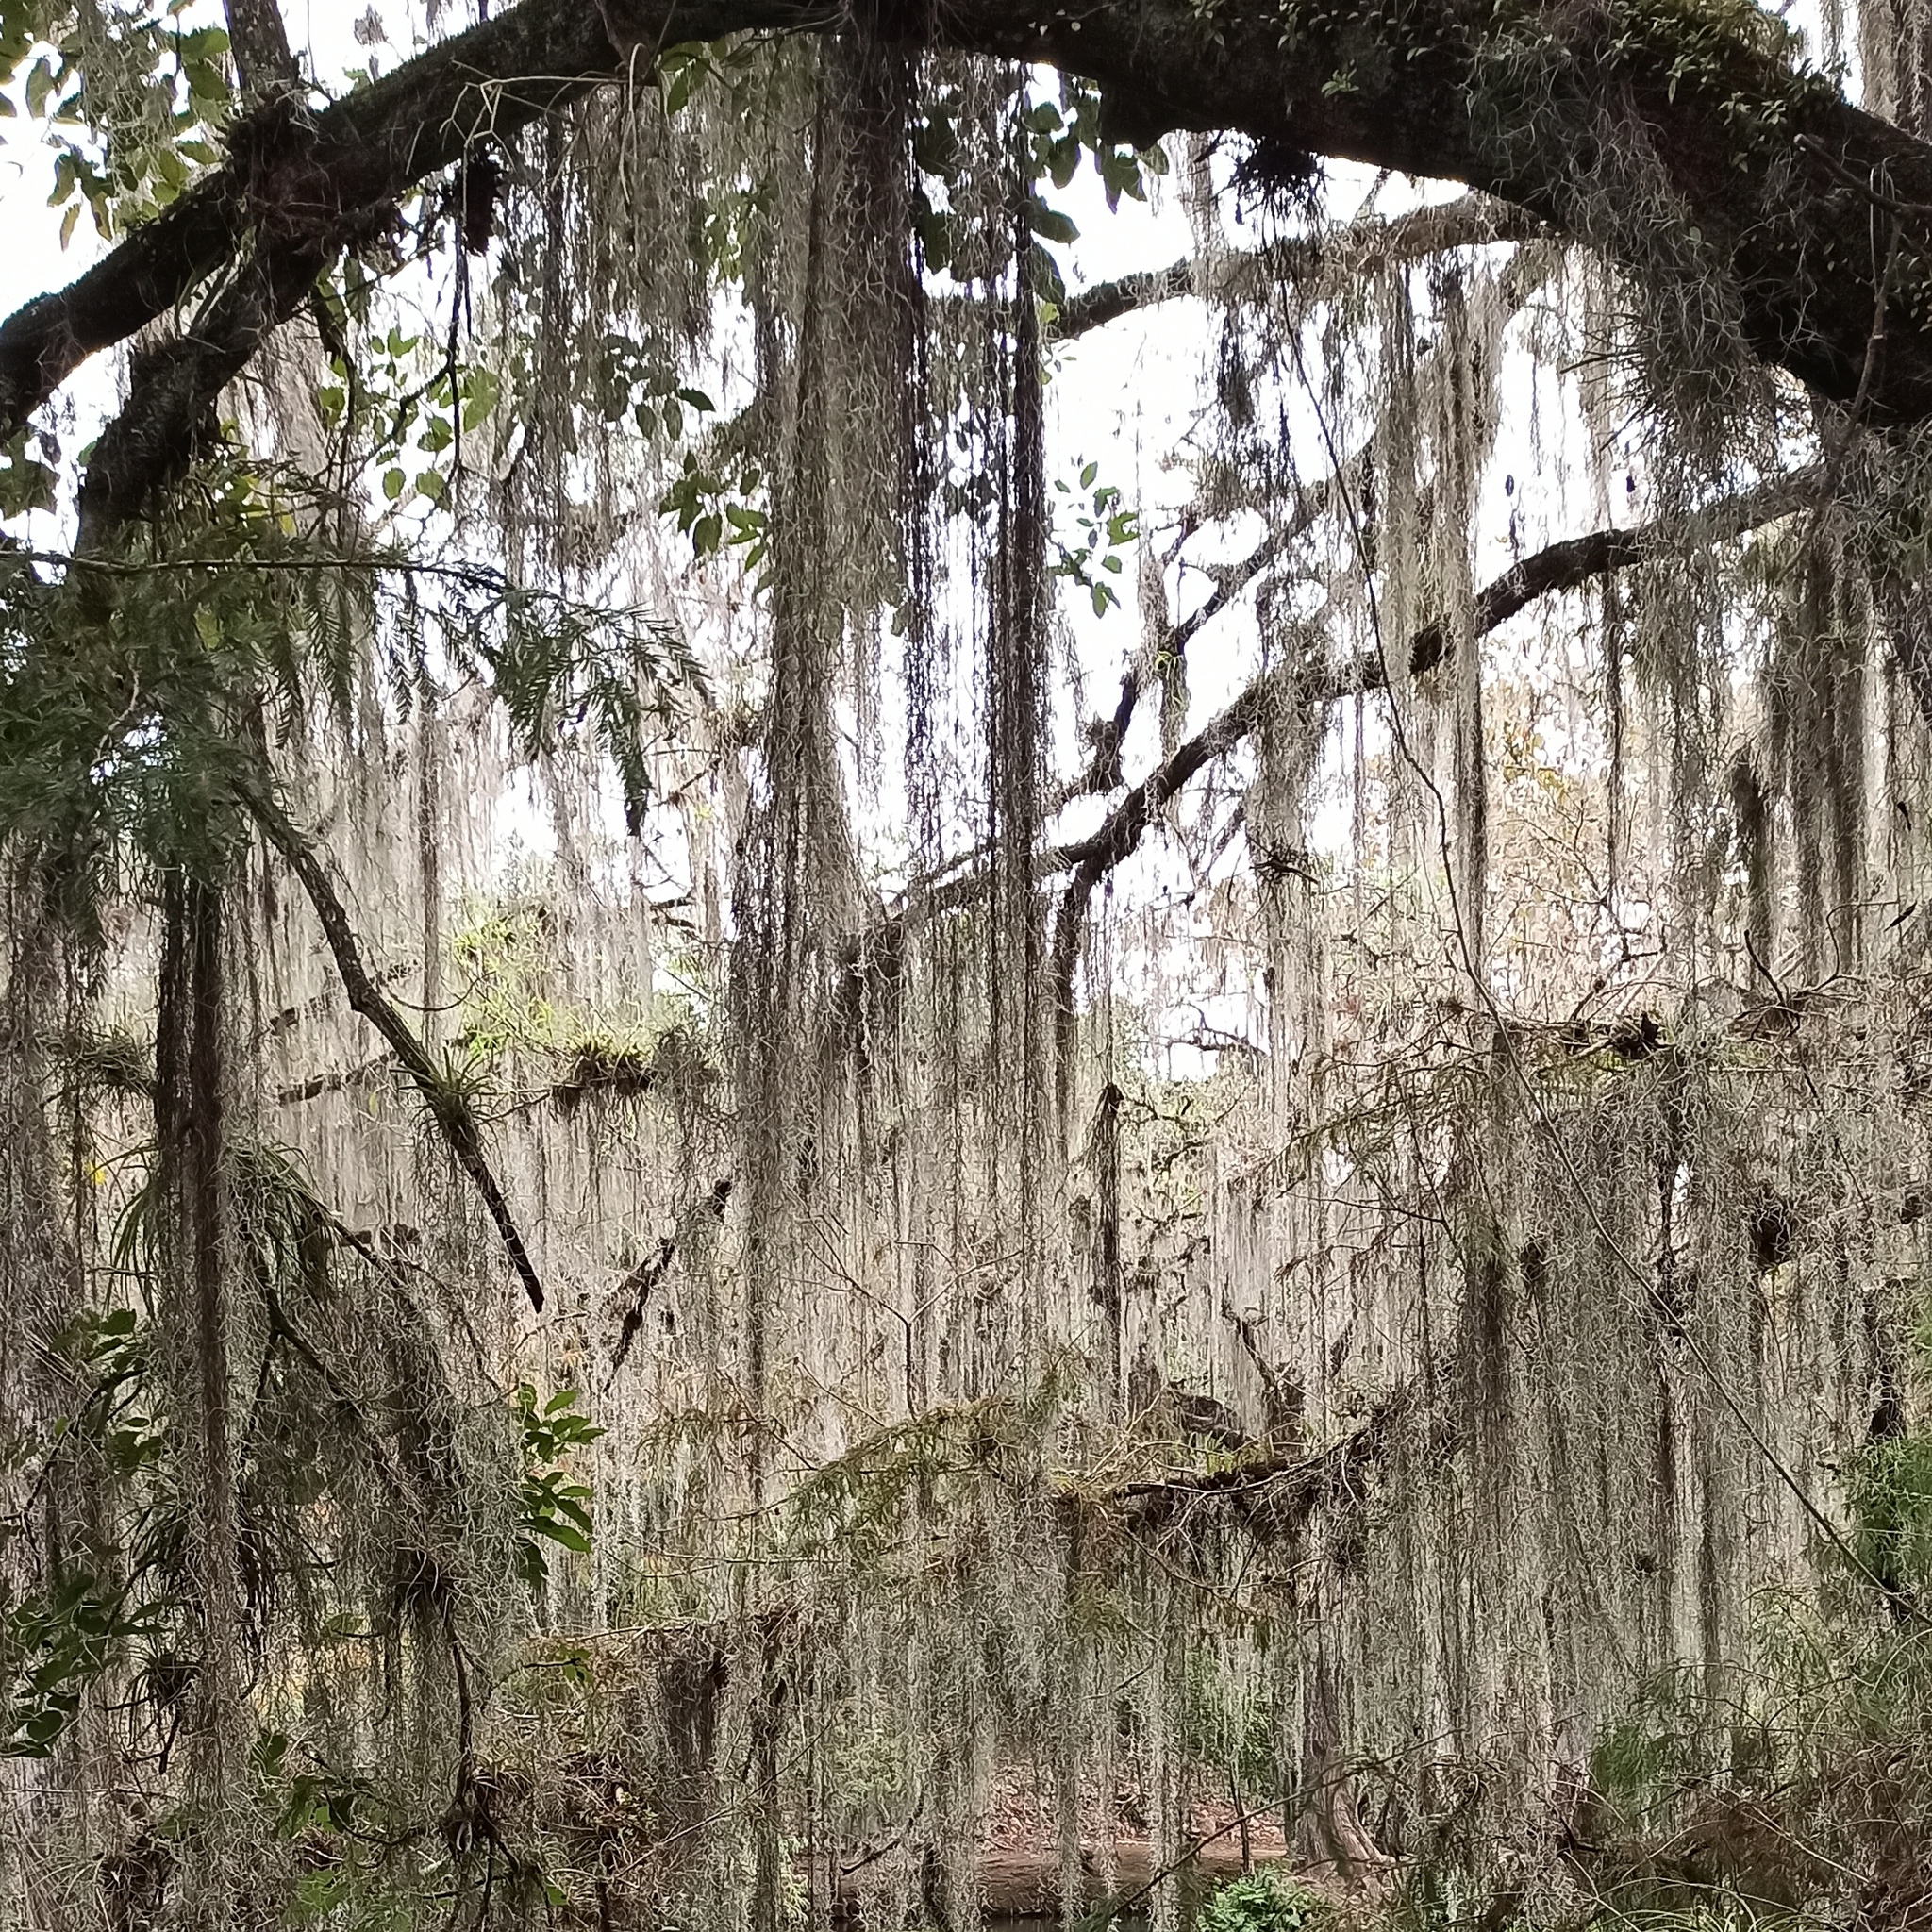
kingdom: Plantae
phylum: Tracheophyta
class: Liliopsida
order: Poales
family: Bromeliaceae
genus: Tillandsia
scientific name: Tillandsia usneoides
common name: Spanish moss
